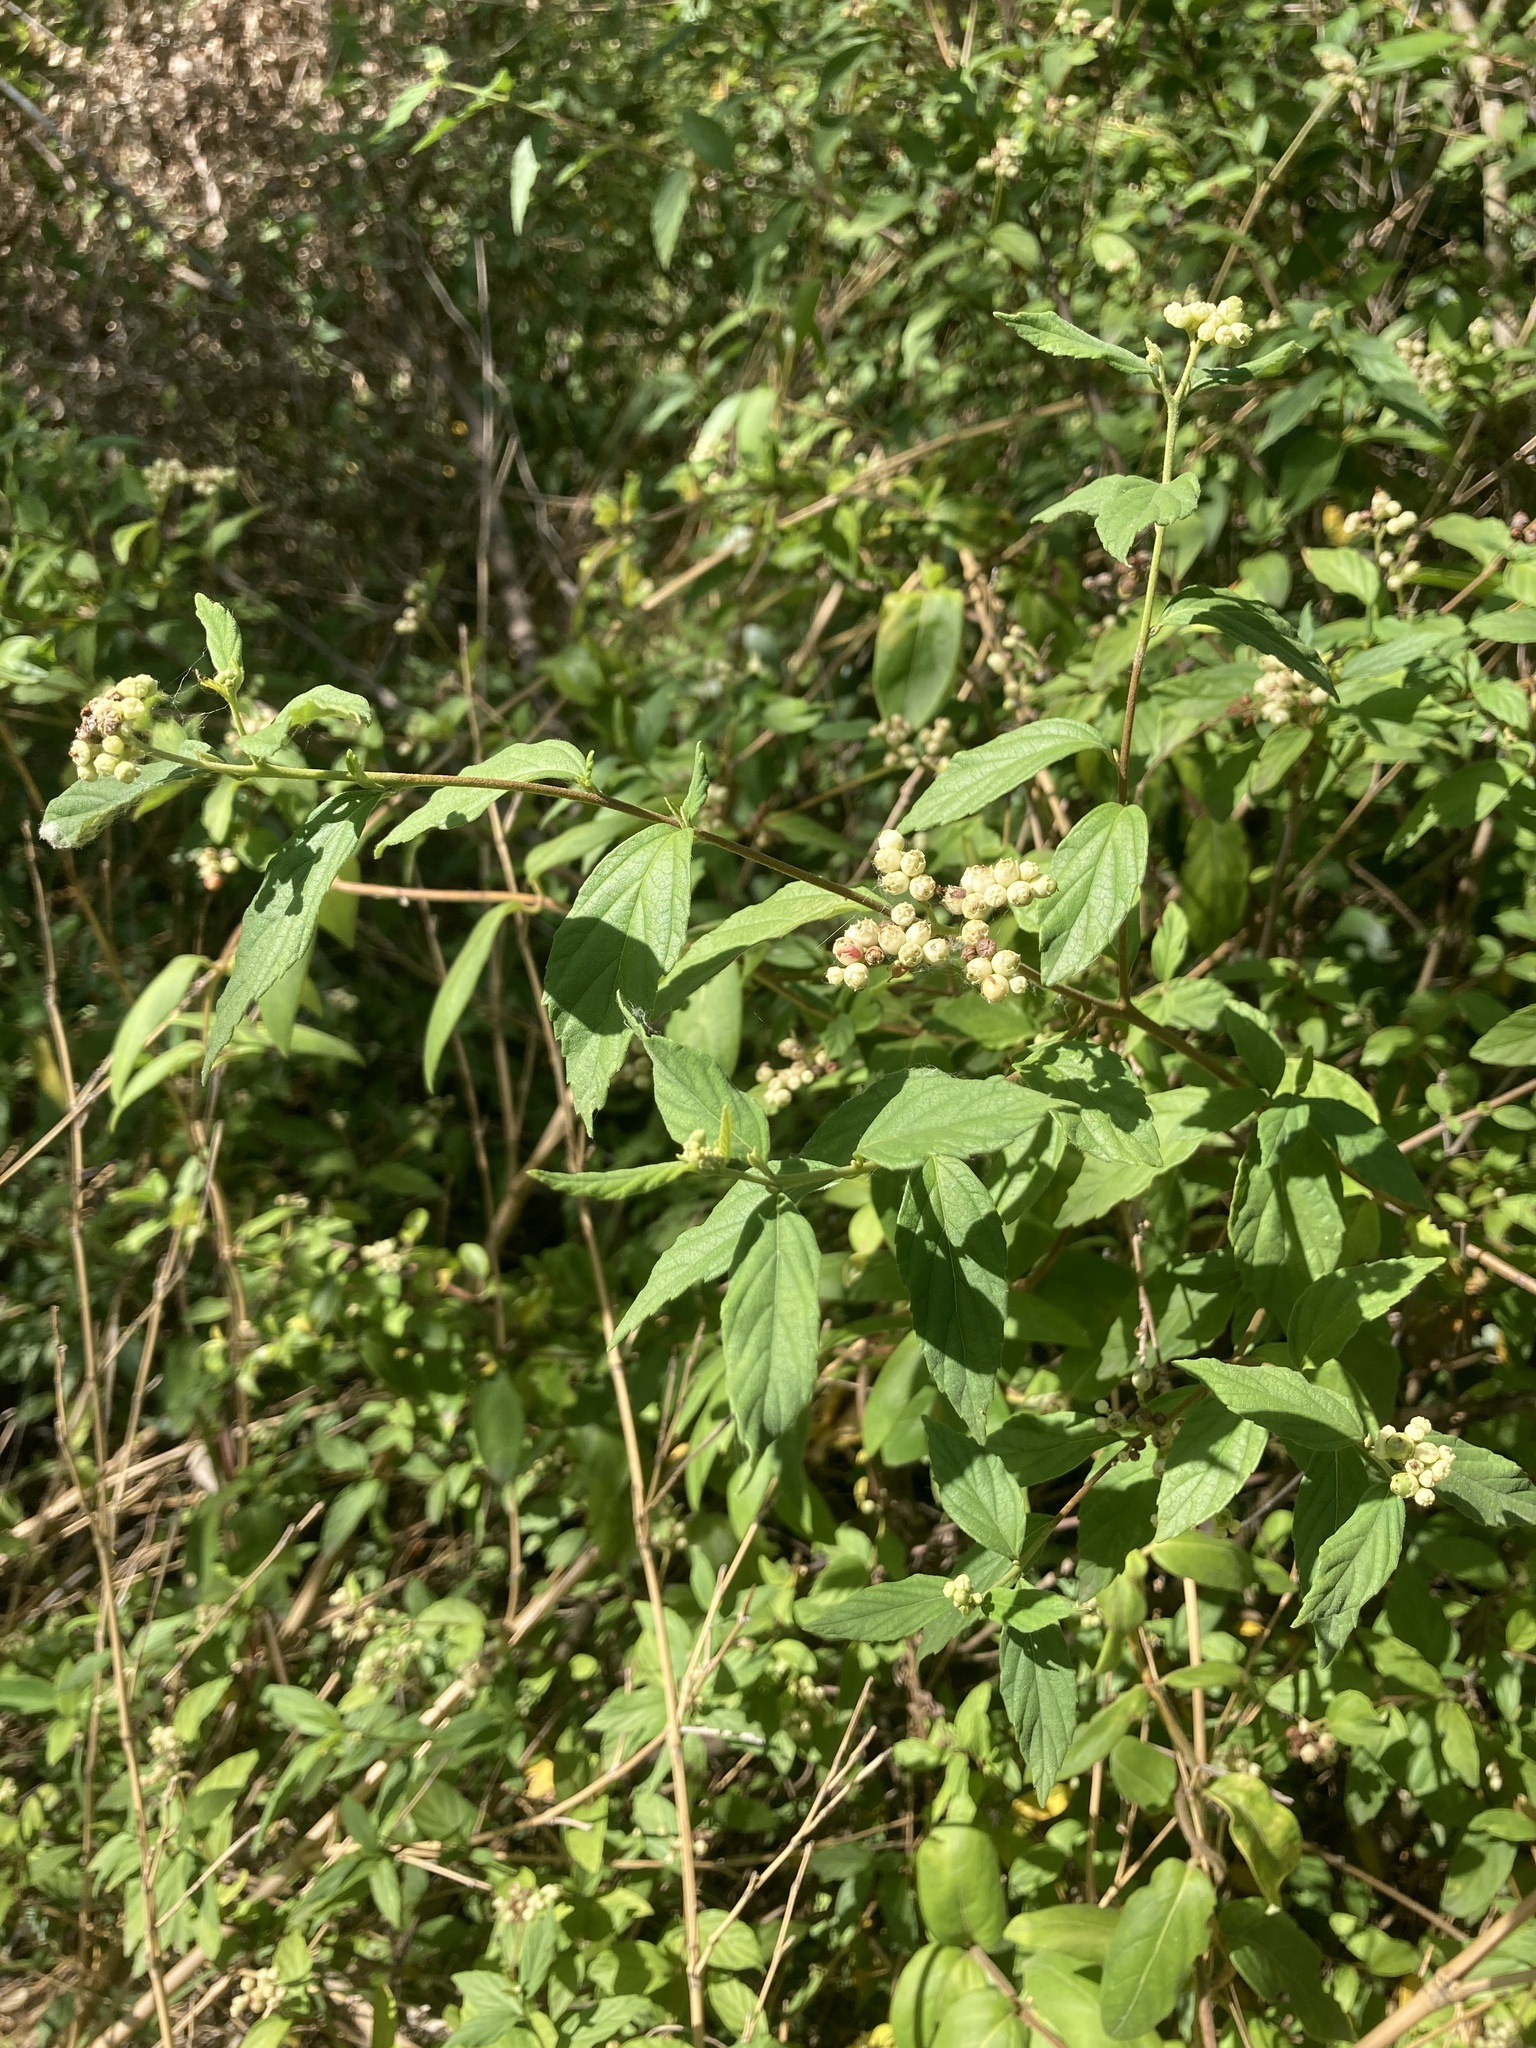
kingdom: Plantae
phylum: Tracheophyta
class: Magnoliopsida
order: Boraginales
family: Cordiaceae
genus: Varronia
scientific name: Varronia dichotoma
